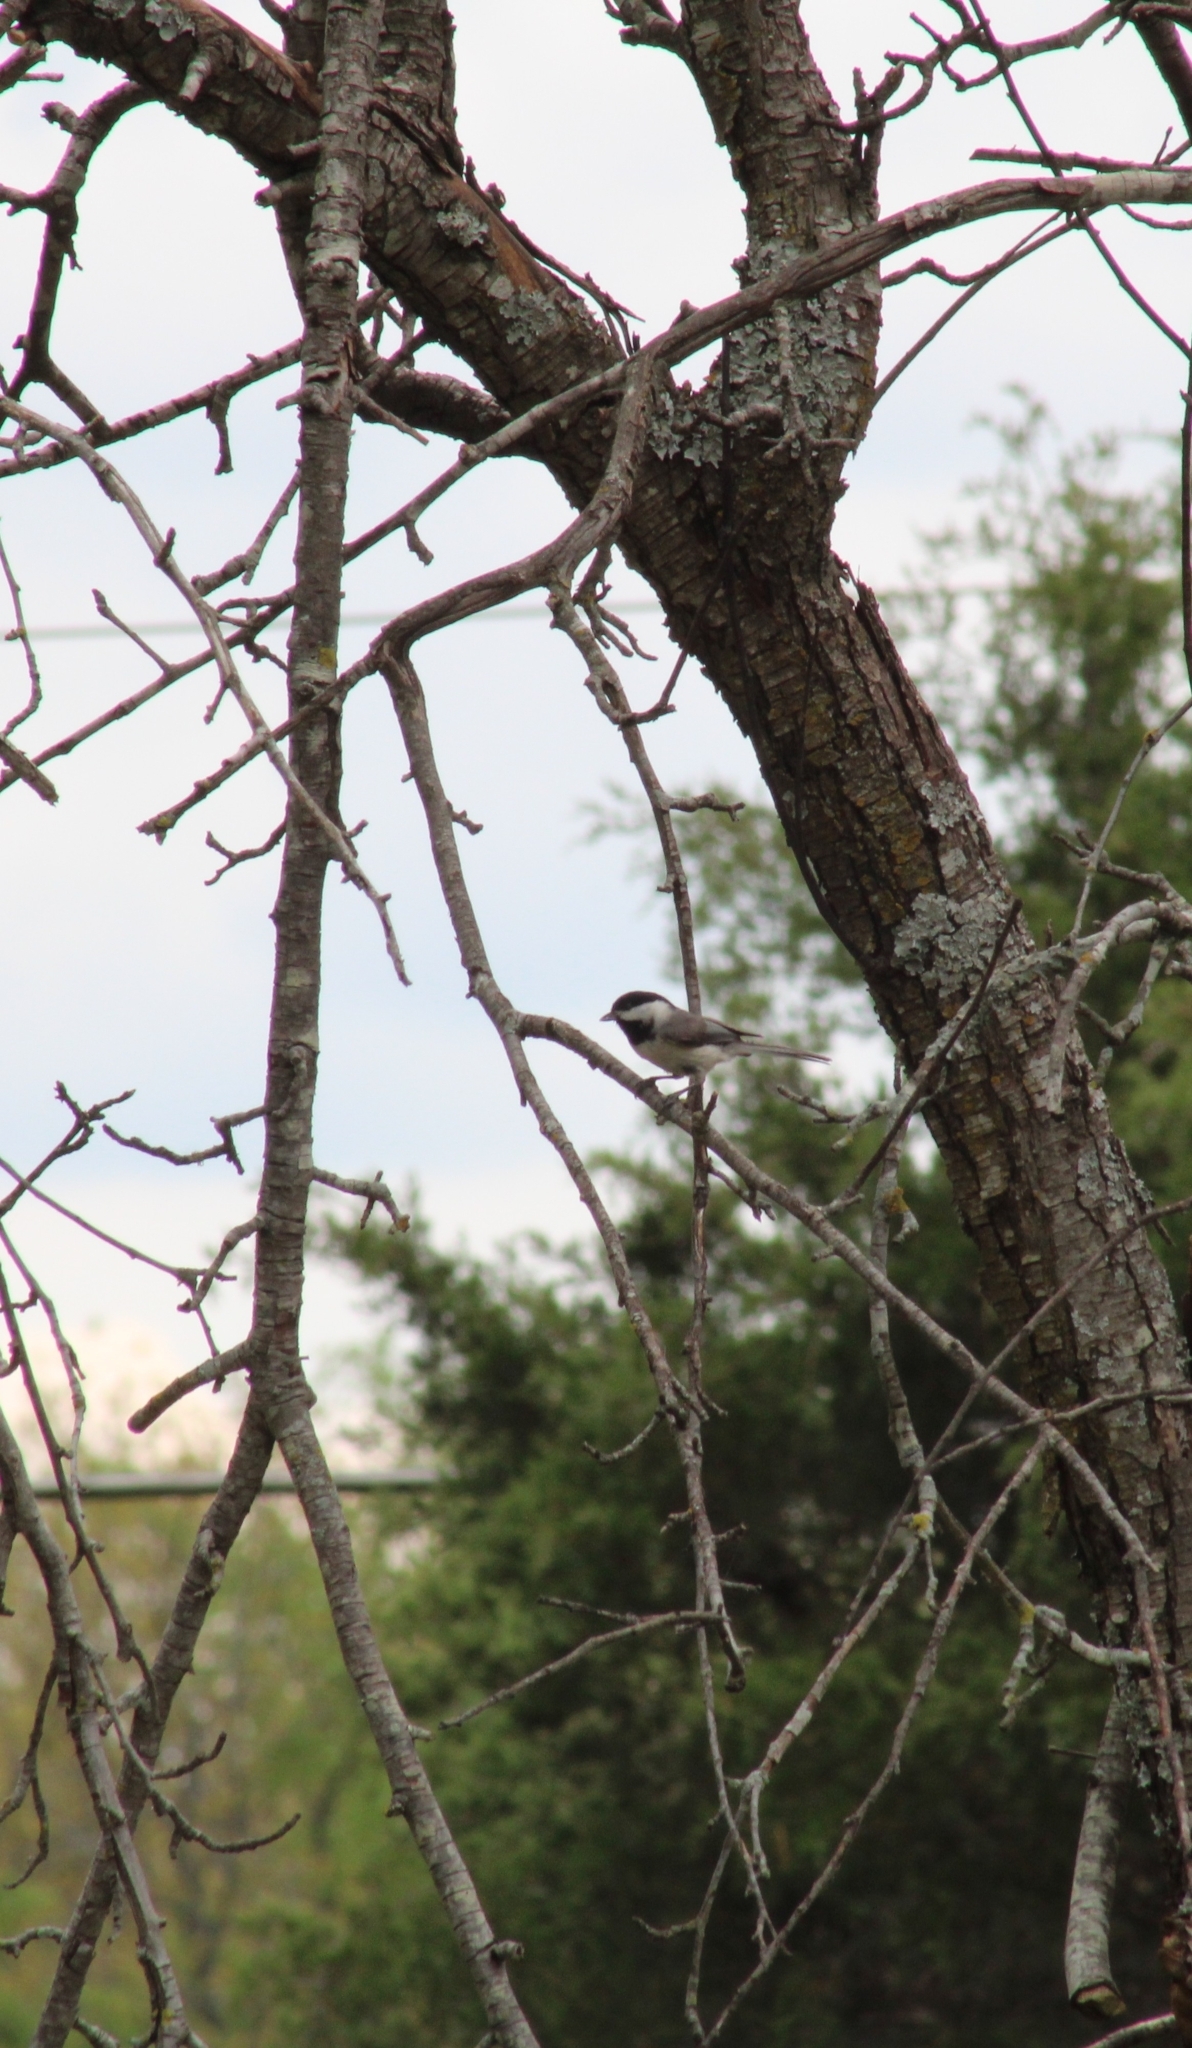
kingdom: Animalia
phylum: Chordata
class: Aves
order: Passeriformes
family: Paridae
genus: Poecile
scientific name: Poecile carolinensis
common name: Carolina chickadee
